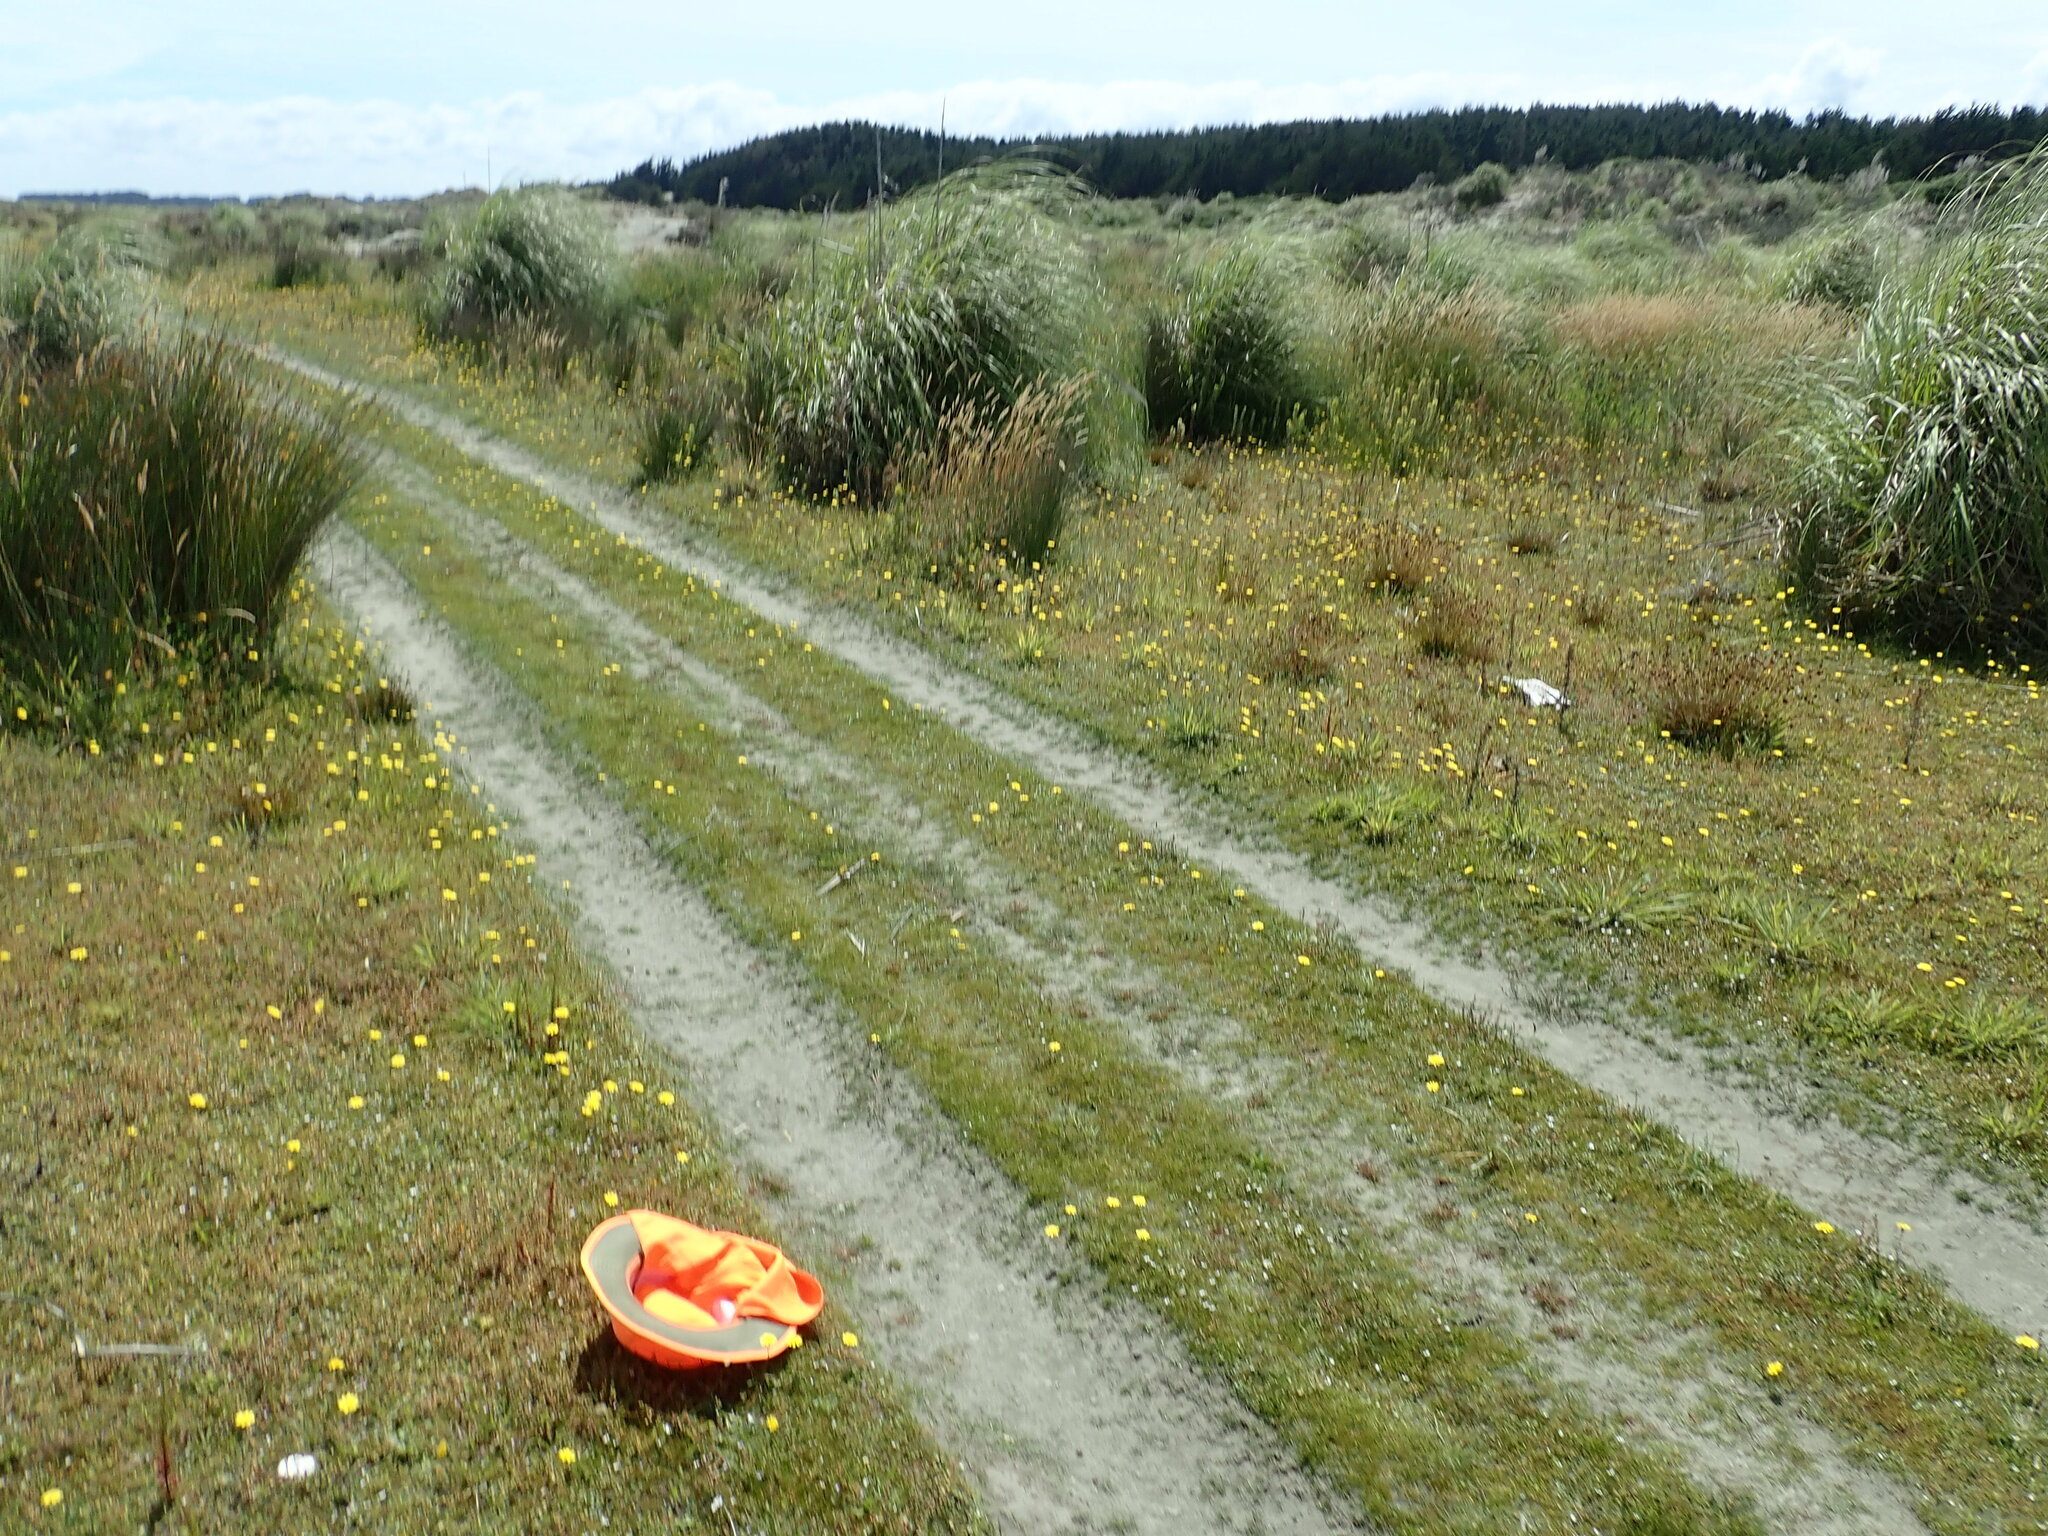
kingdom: Plantae
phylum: Tracheophyta
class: Magnoliopsida
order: Ericales
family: Primulaceae
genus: Samolus
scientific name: Samolus repens
